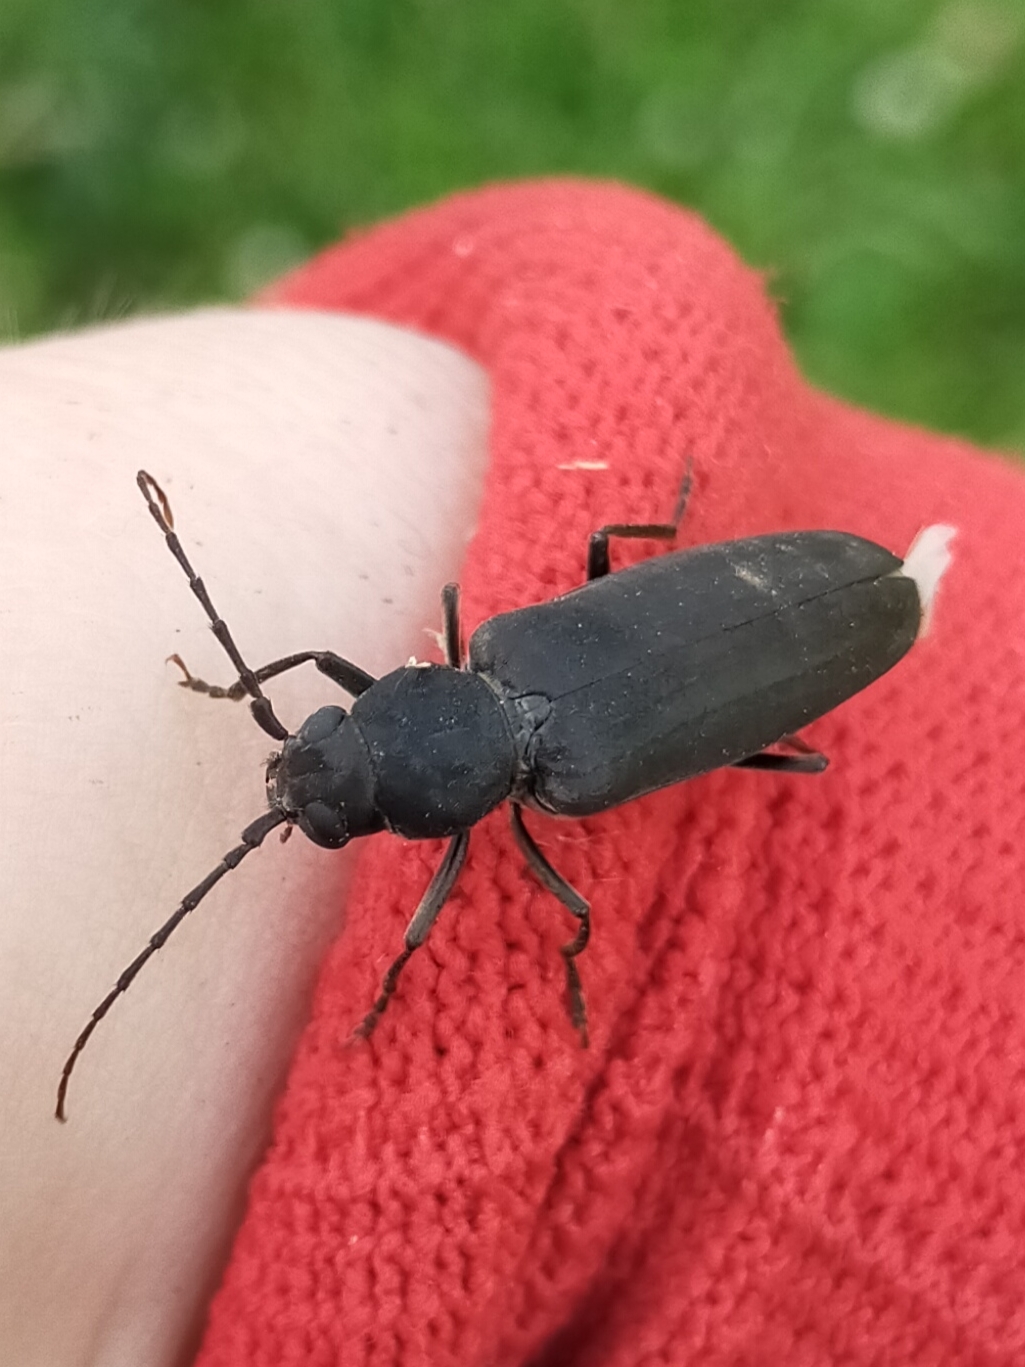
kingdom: Animalia
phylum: Arthropoda
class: Insecta
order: Coleoptera
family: Cerambycidae
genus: Arhopalus
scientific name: Arhopalus ferus
